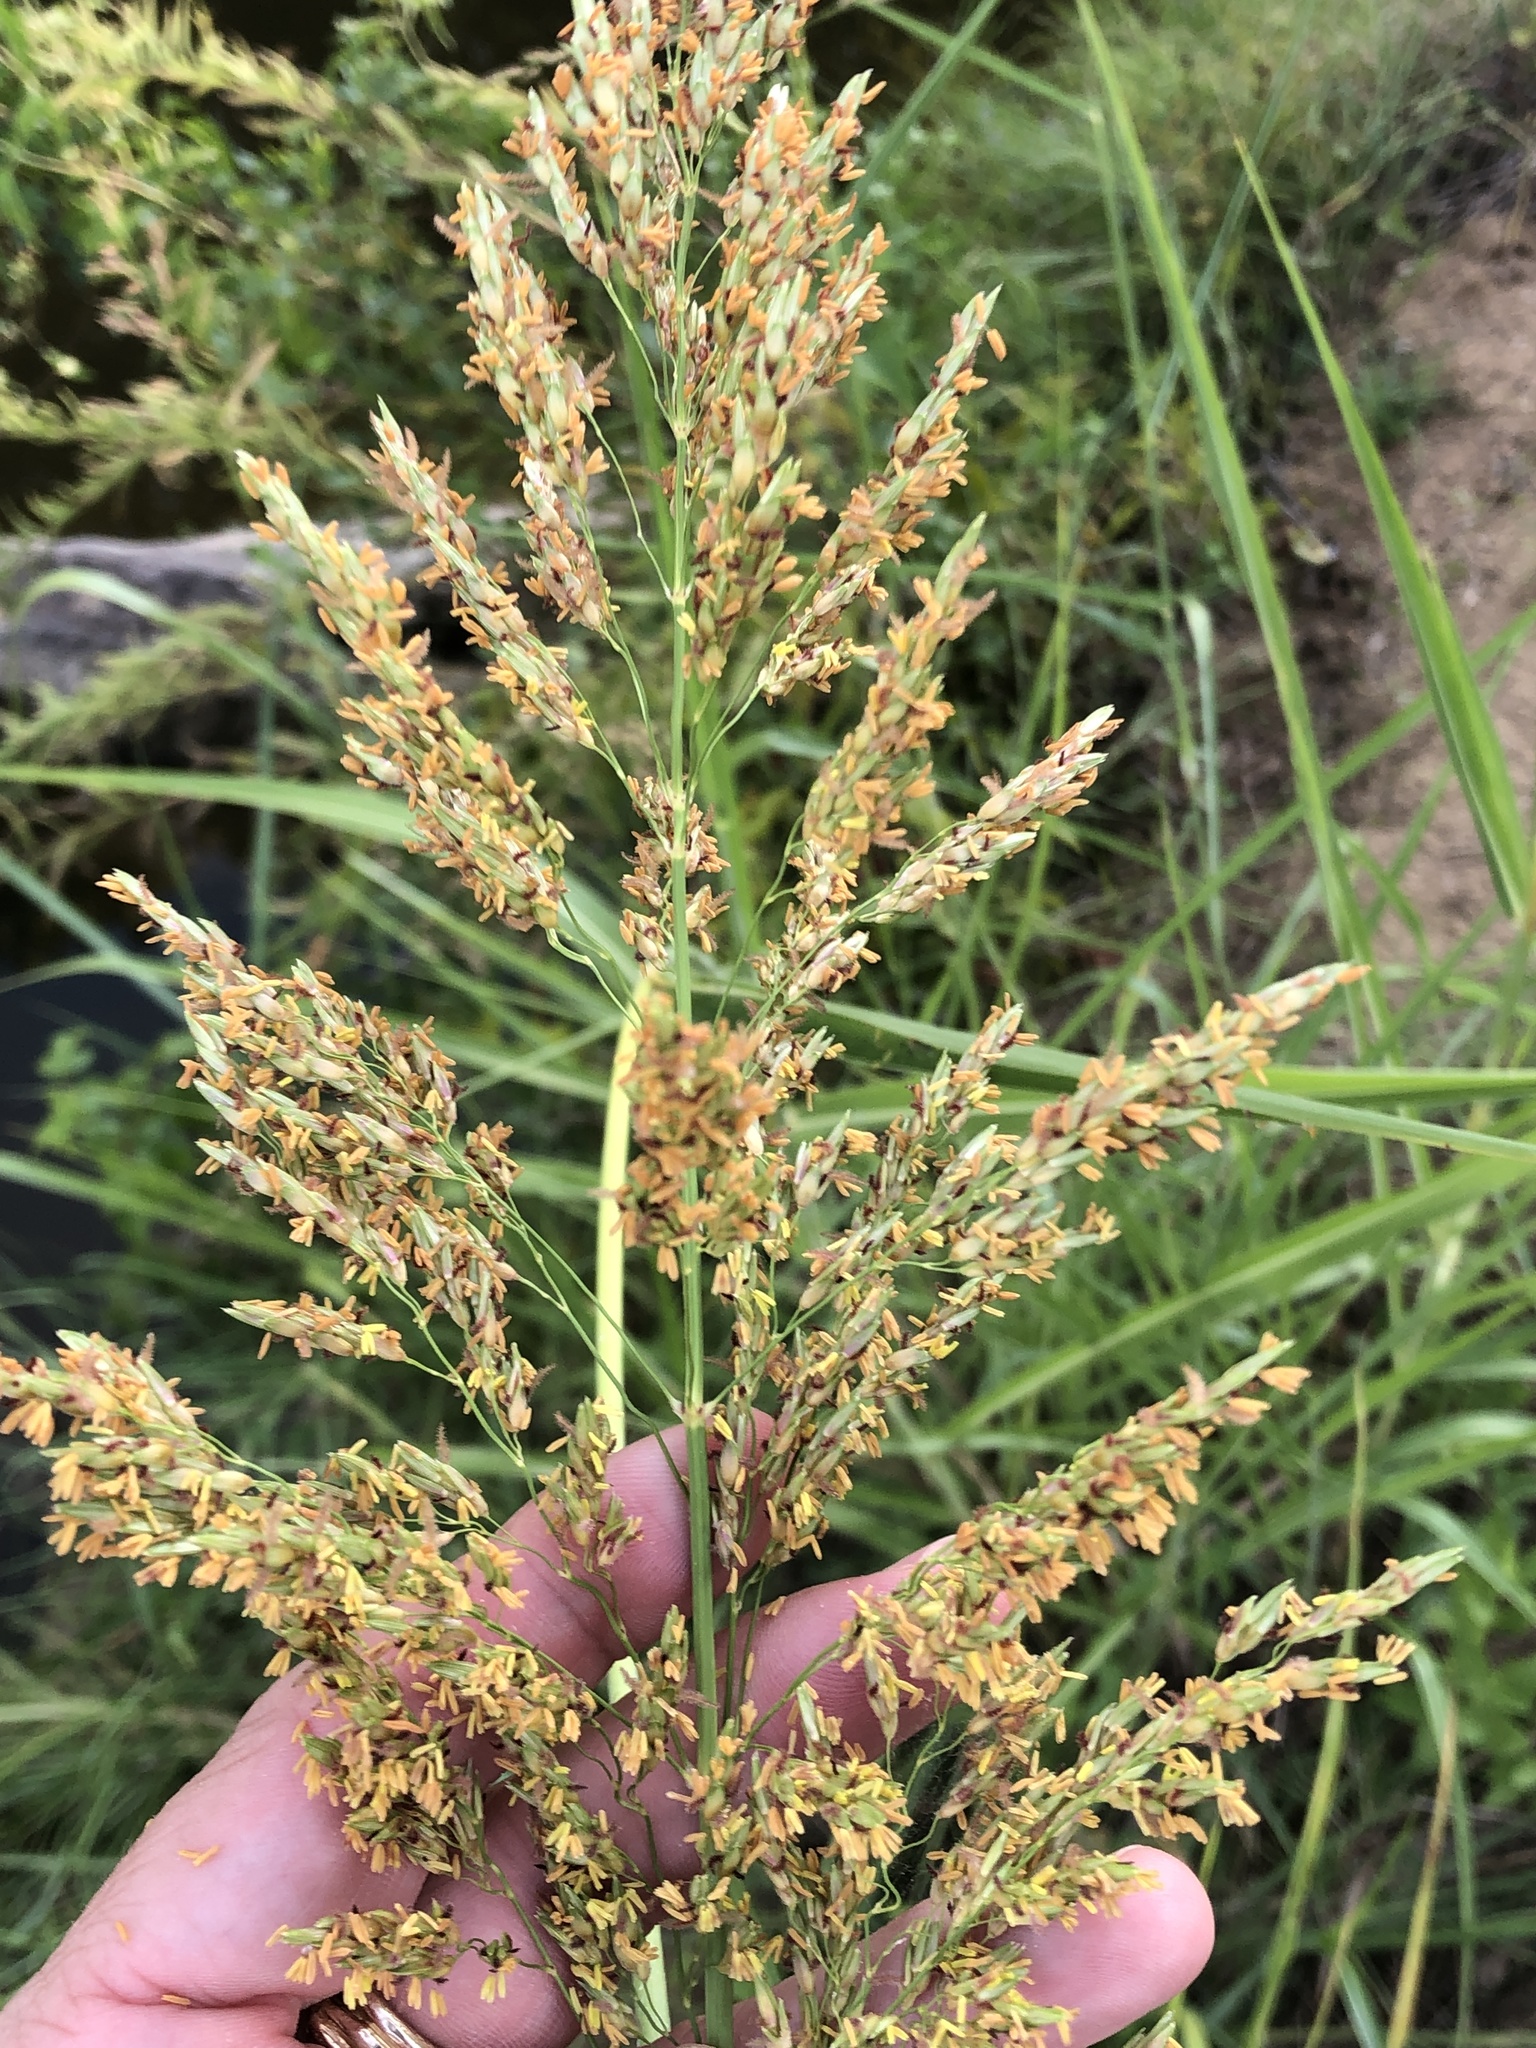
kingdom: Plantae
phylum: Tracheophyta
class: Liliopsida
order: Poales
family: Poaceae
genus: Sorghum
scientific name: Sorghum halepense
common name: Johnson-grass
